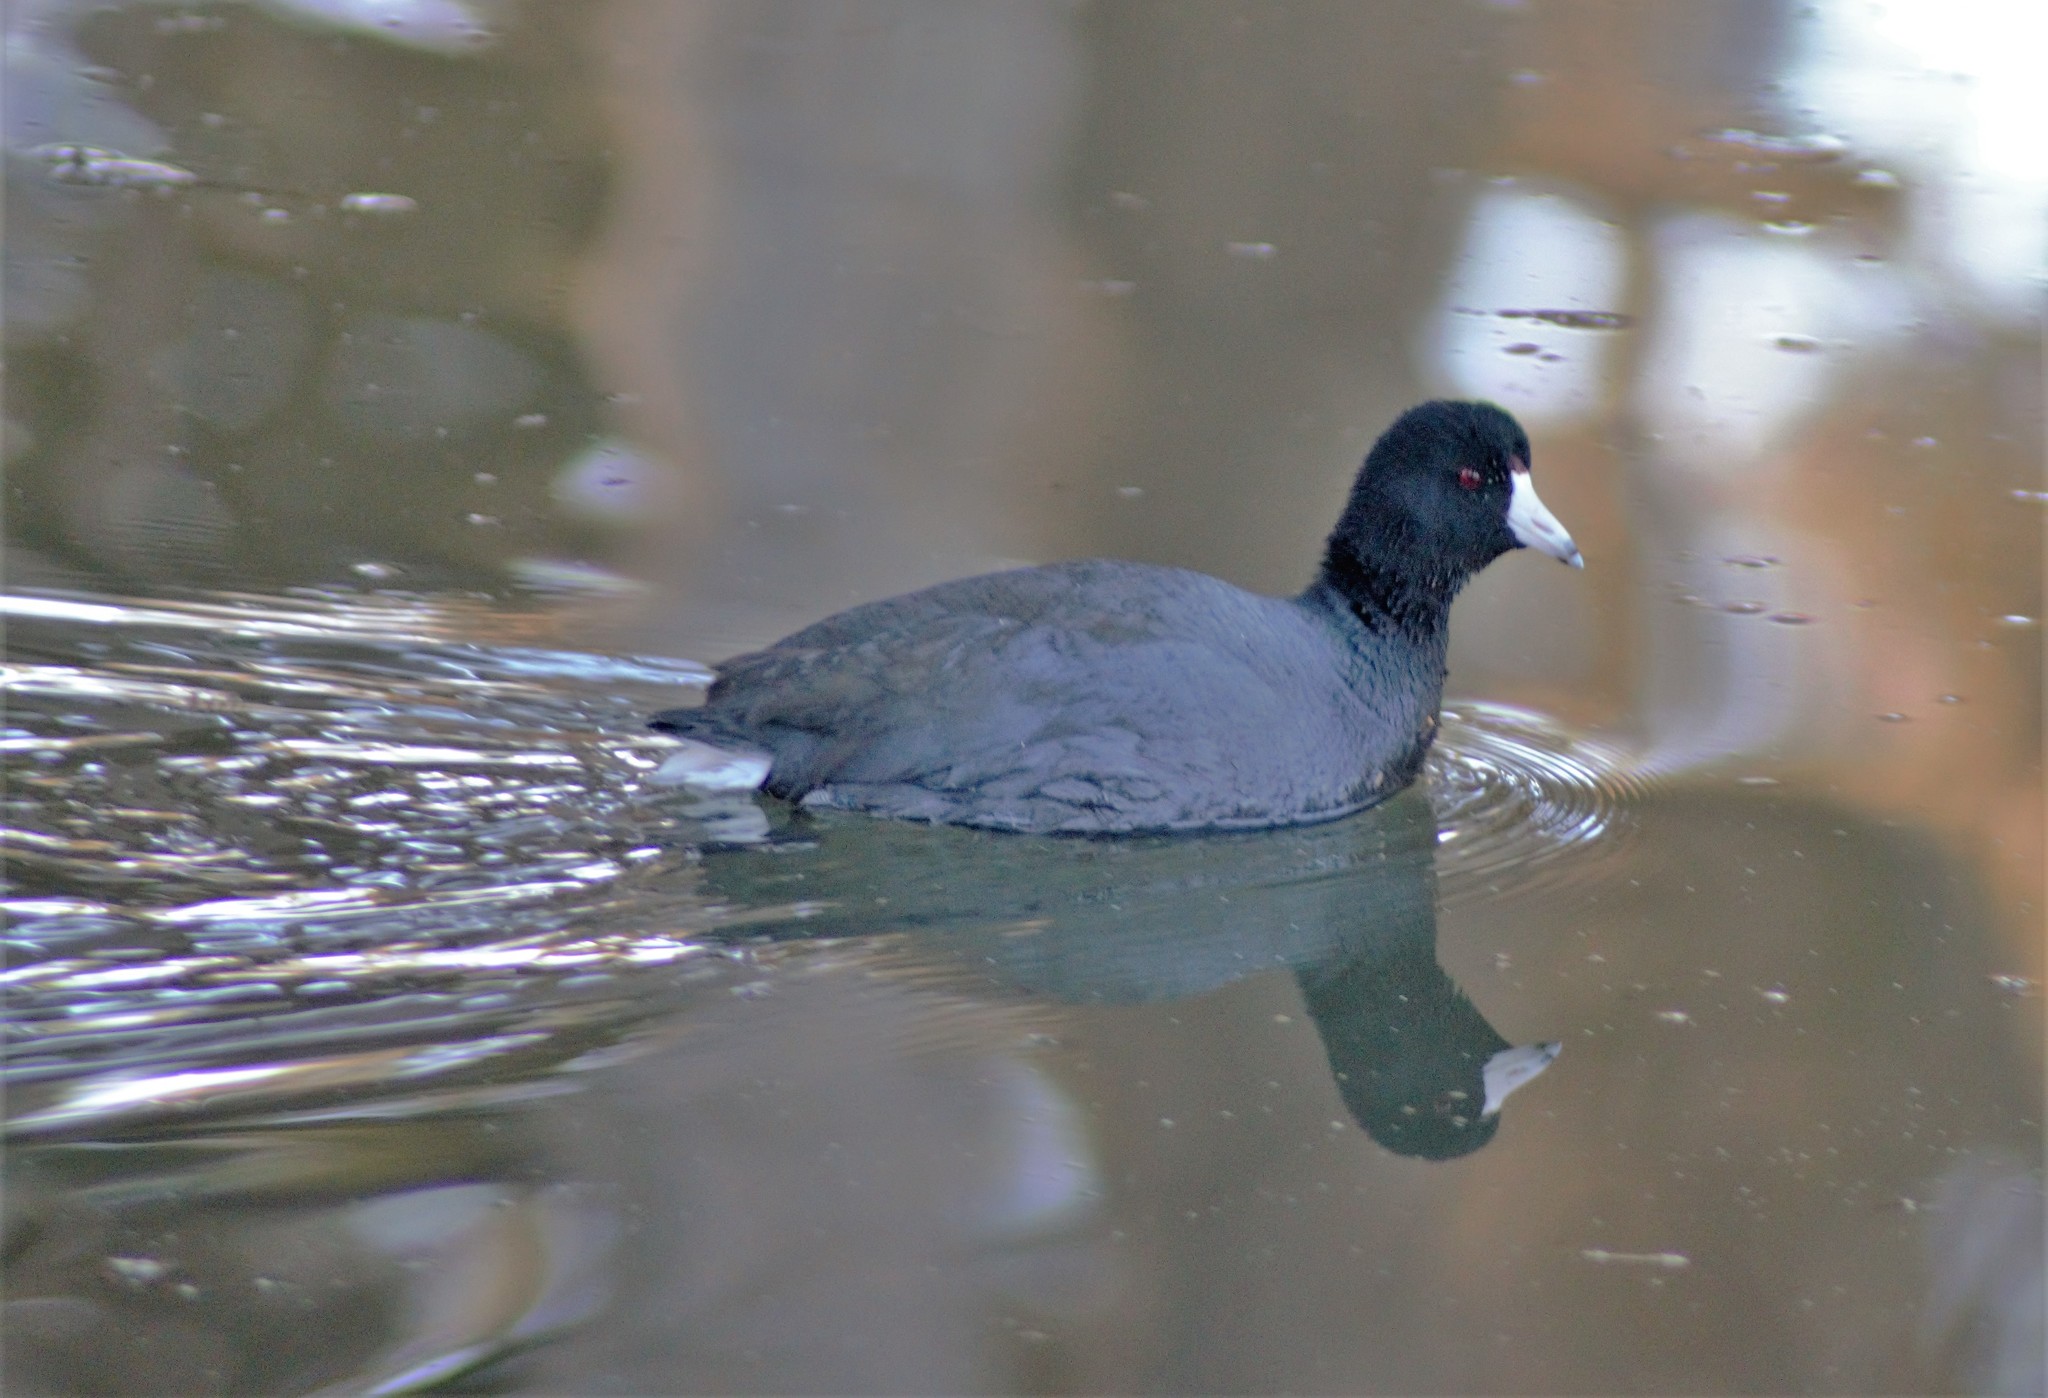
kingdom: Animalia
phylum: Chordata
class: Aves
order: Gruiformes
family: Rallidae
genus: Fulica
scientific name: Fulica americana
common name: American coot
